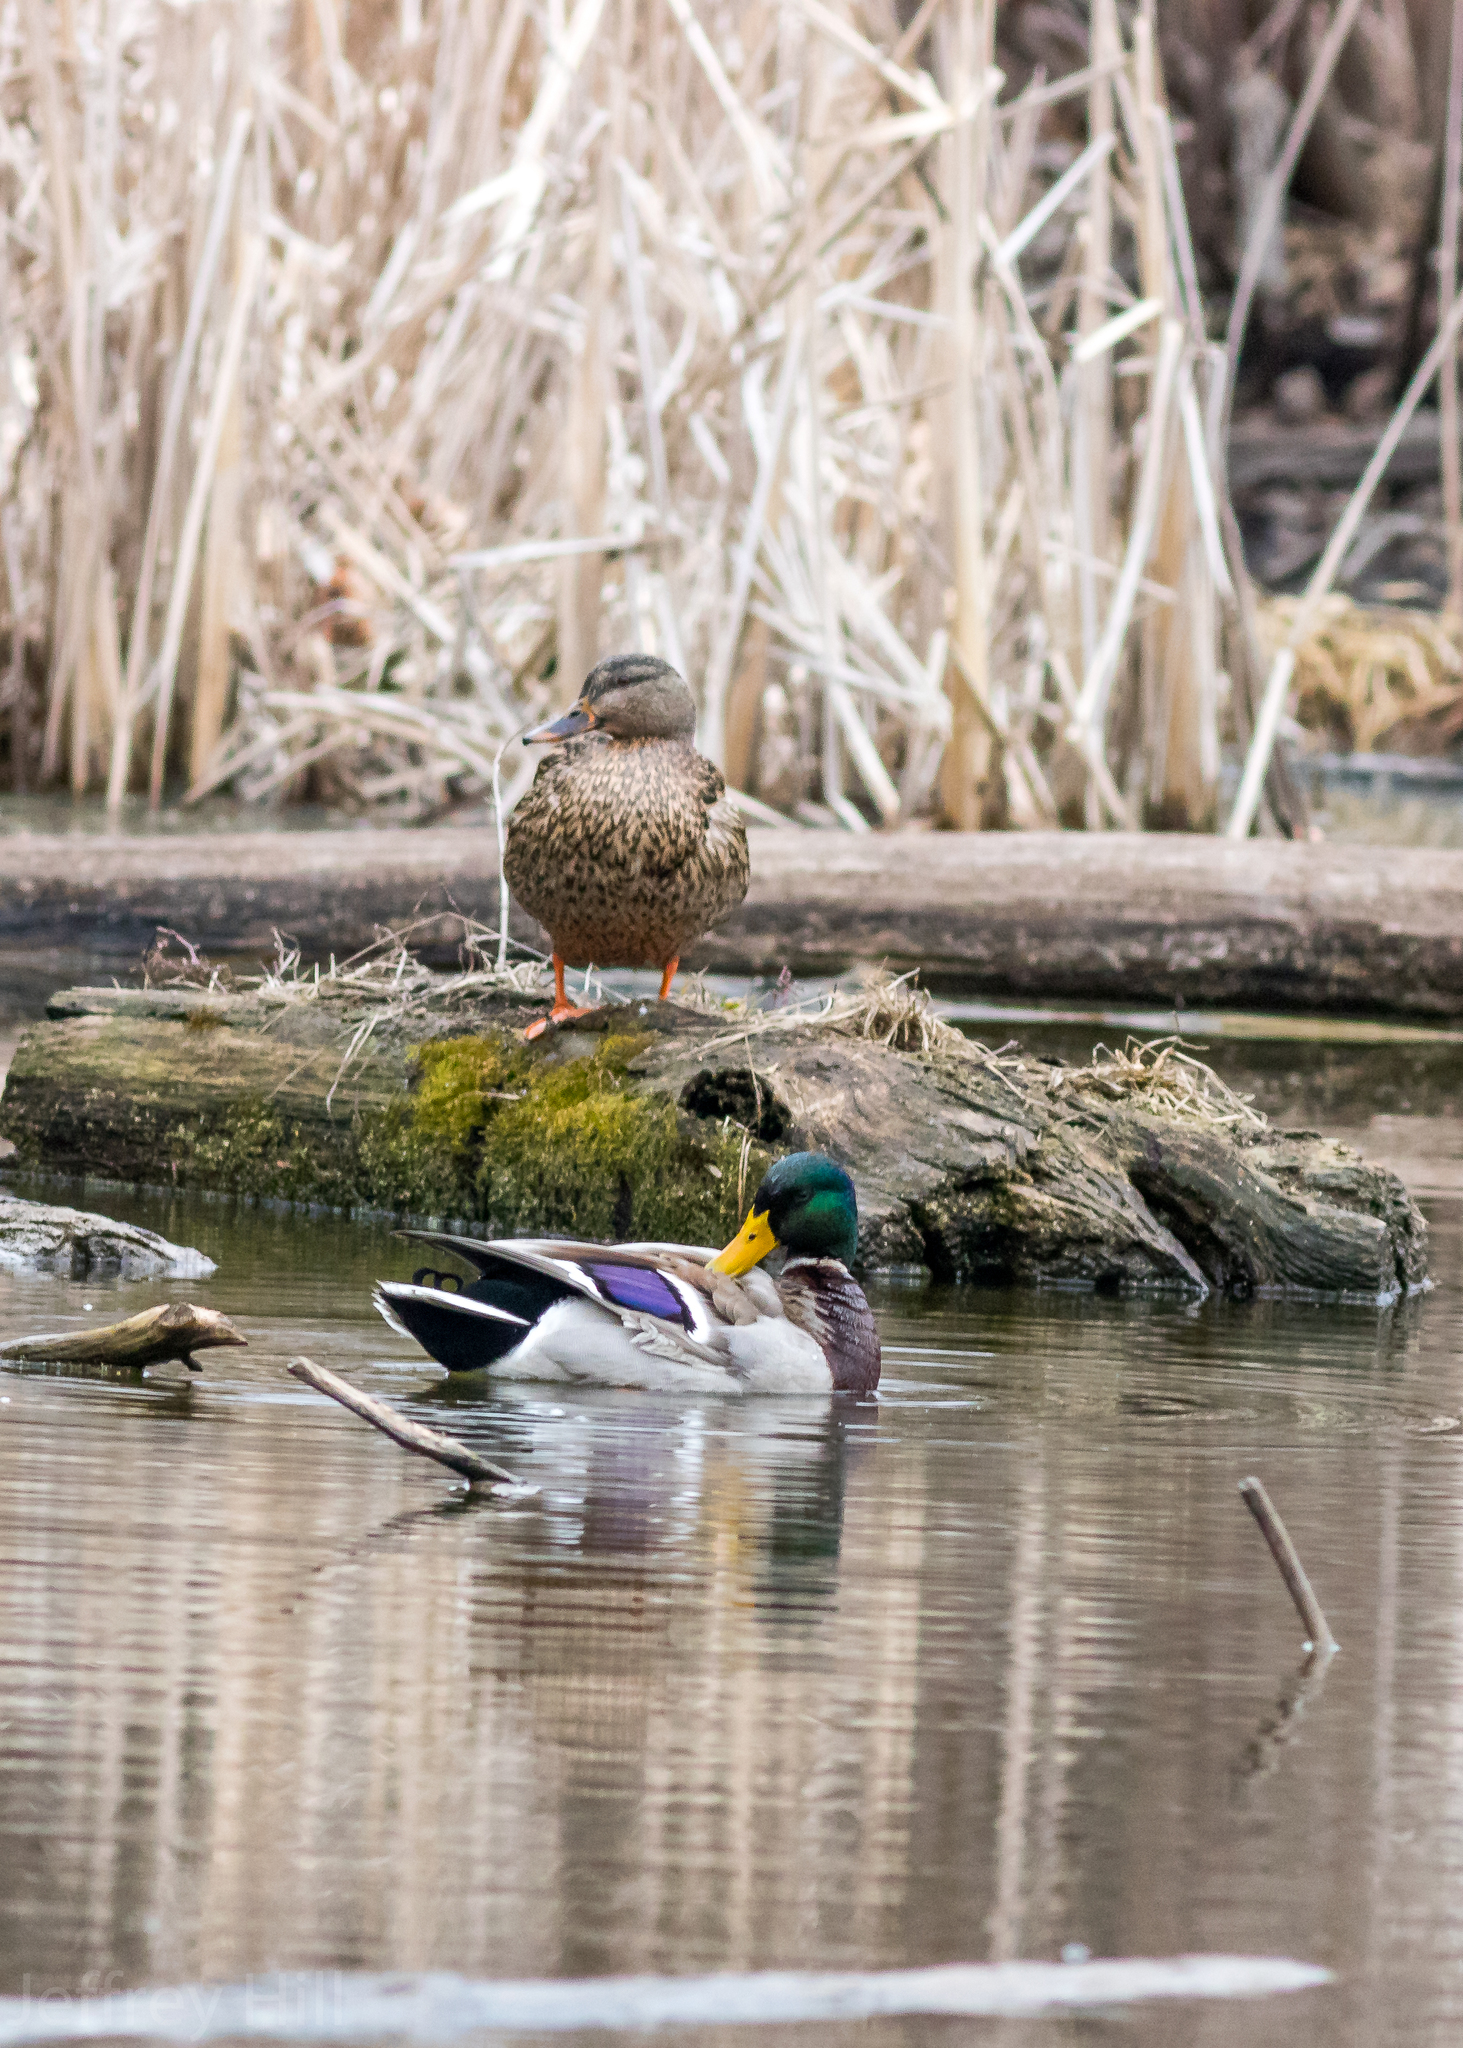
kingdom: Animalia
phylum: Chordata
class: Aves
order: Anseriformes
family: Anatidae
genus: Anas
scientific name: Anas platyrhynchos
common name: Mallard
